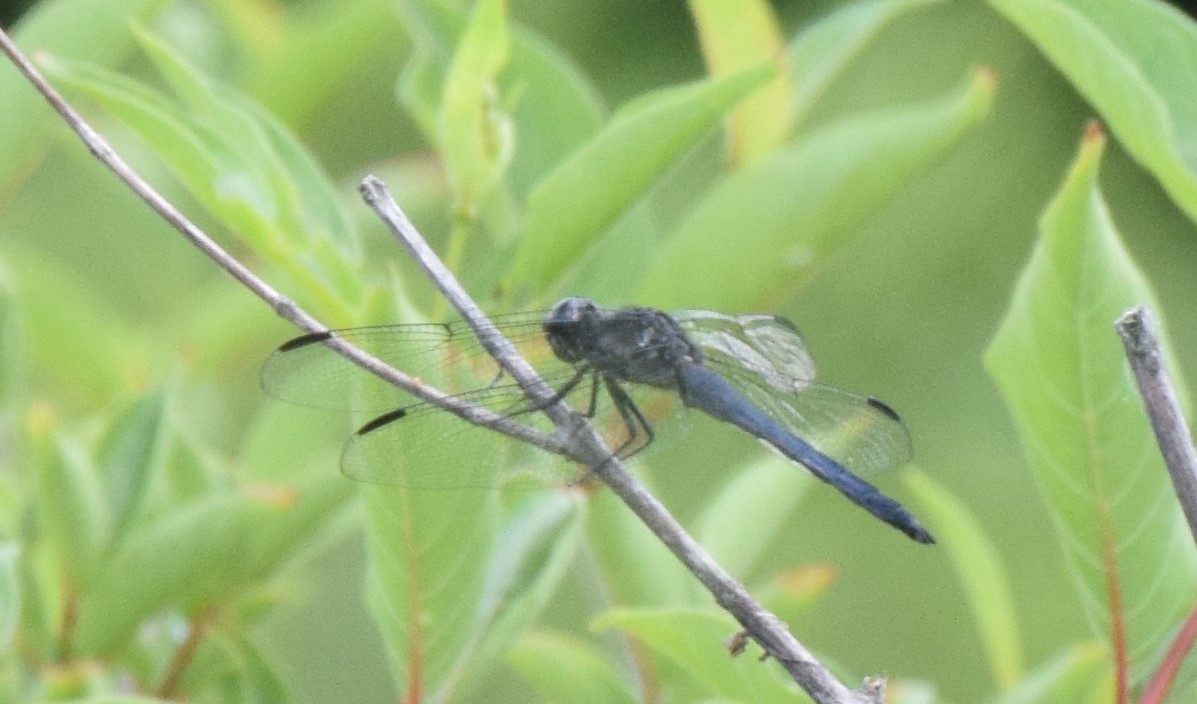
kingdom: Animalia
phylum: Arthropoda
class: Insecta
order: Odonata
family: Libellulidae
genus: Libellula
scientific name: Libellula incesta
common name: Slaty skimmer
